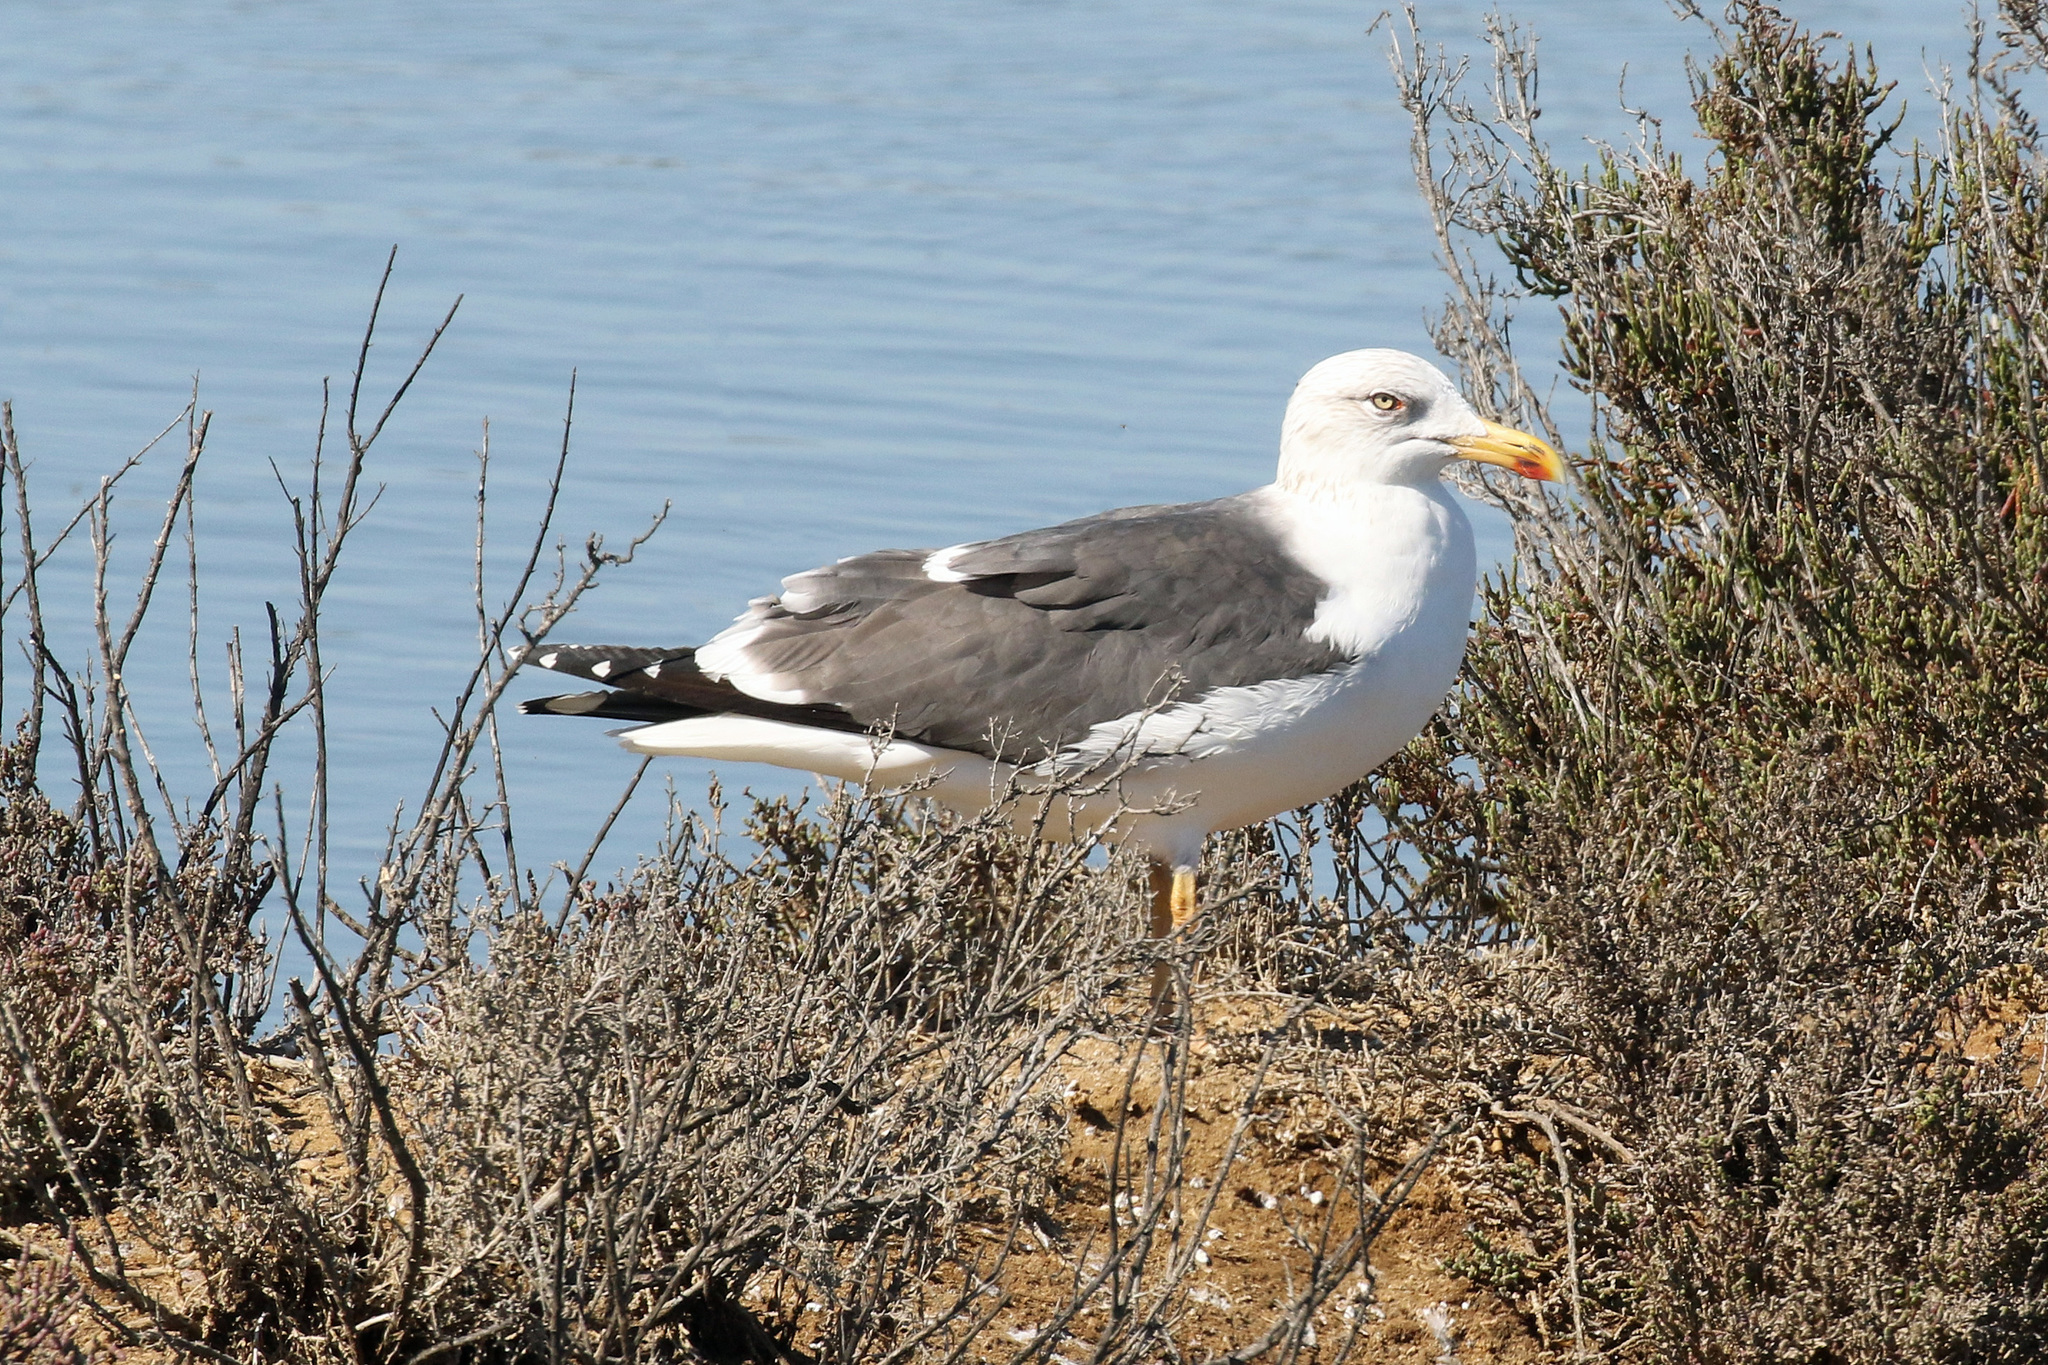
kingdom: Animalia
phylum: Chordata
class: Aves
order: Charadriiformes
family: Laridae
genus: Larus
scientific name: Larus fuscus
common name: Lesser black-backed gull
